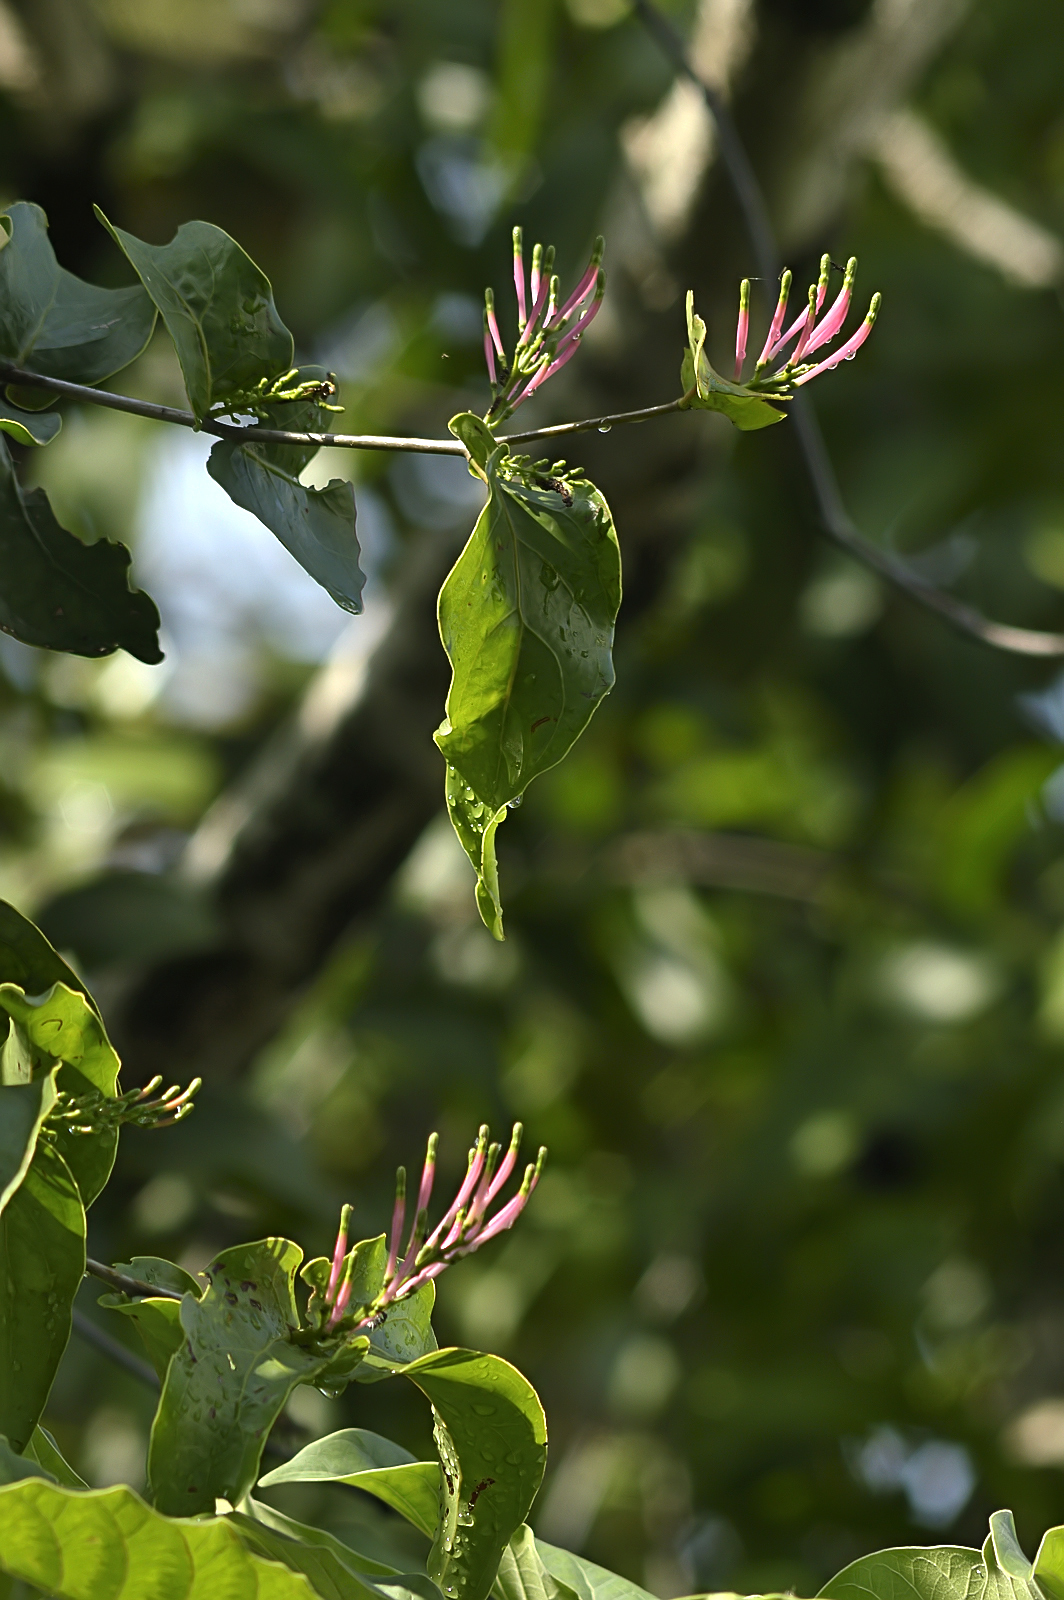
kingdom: Plantae
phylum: Tracheophyta
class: Magnoliopsida
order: Santalales
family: Loranthaceae
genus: Dendrophthoe
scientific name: Dendrophthoe falcata
